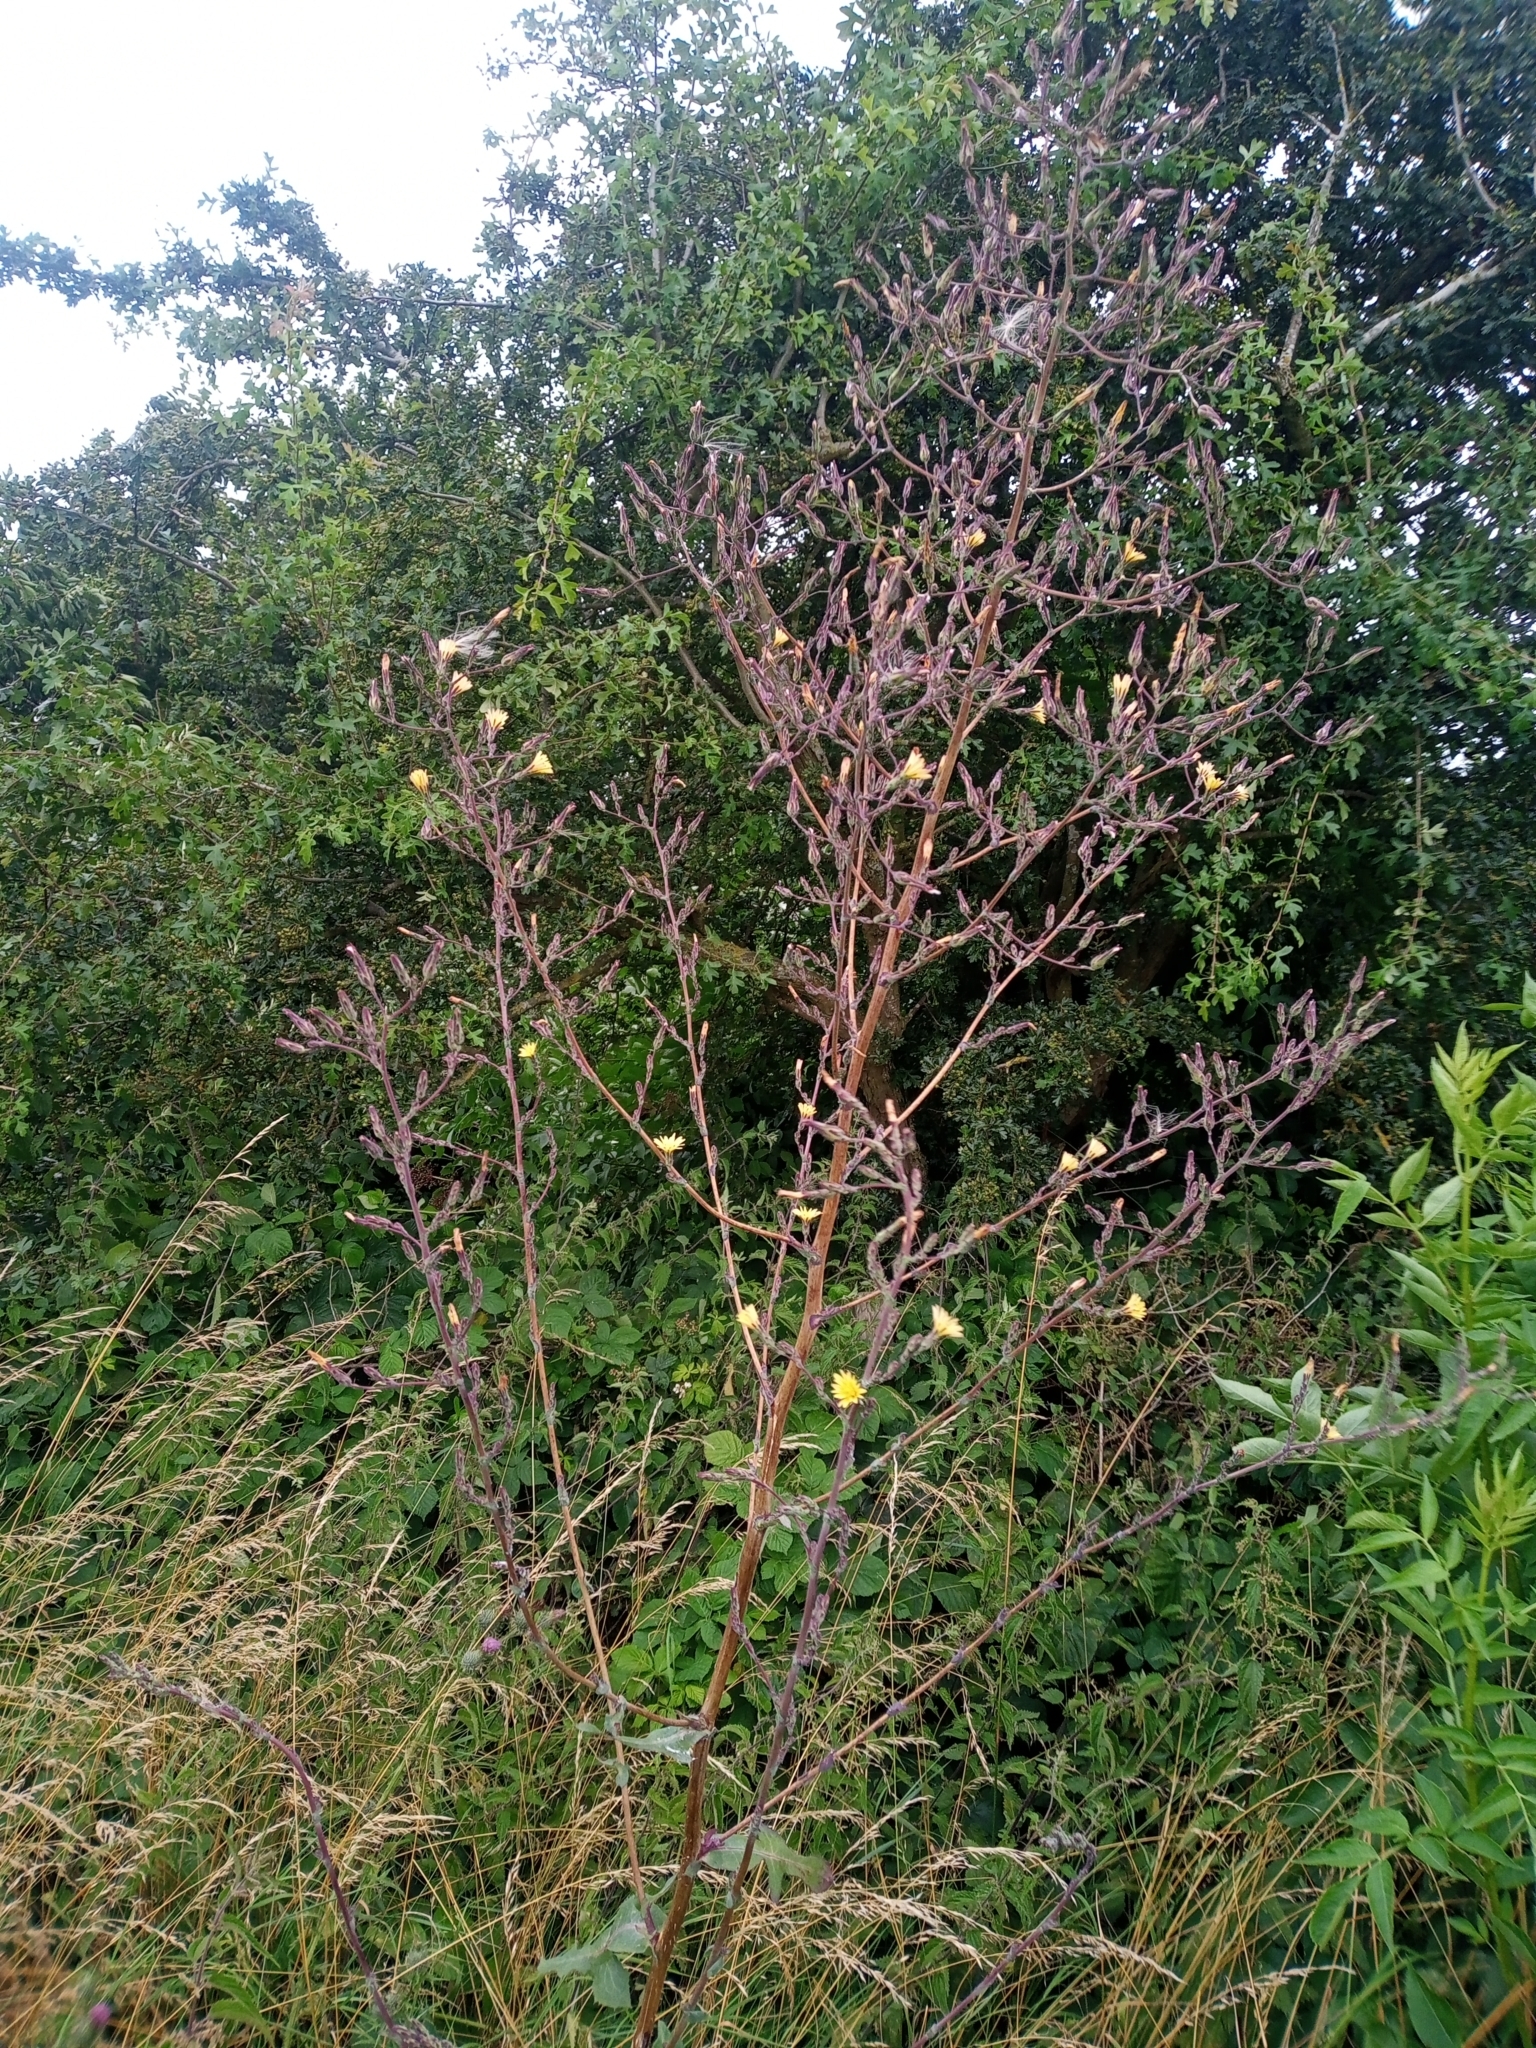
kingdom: Plantae
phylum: Tracheophyta
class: Magnoliopsida
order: Asterales
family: Asteraceae
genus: Lactuca
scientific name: Lactuca virosa
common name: Great lettuce
